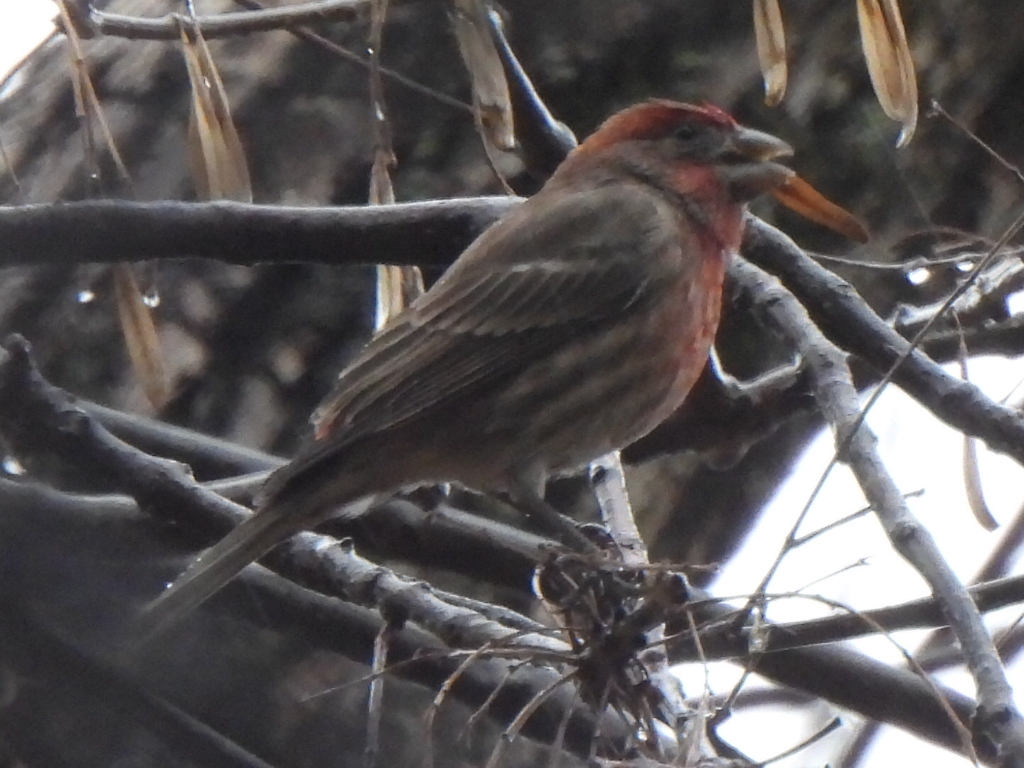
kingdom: Animalia
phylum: Chordata
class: Aves
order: Passeriformes
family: Fringillidae
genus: Haemorhous
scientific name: Haemorhous mexicanus
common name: House finch
